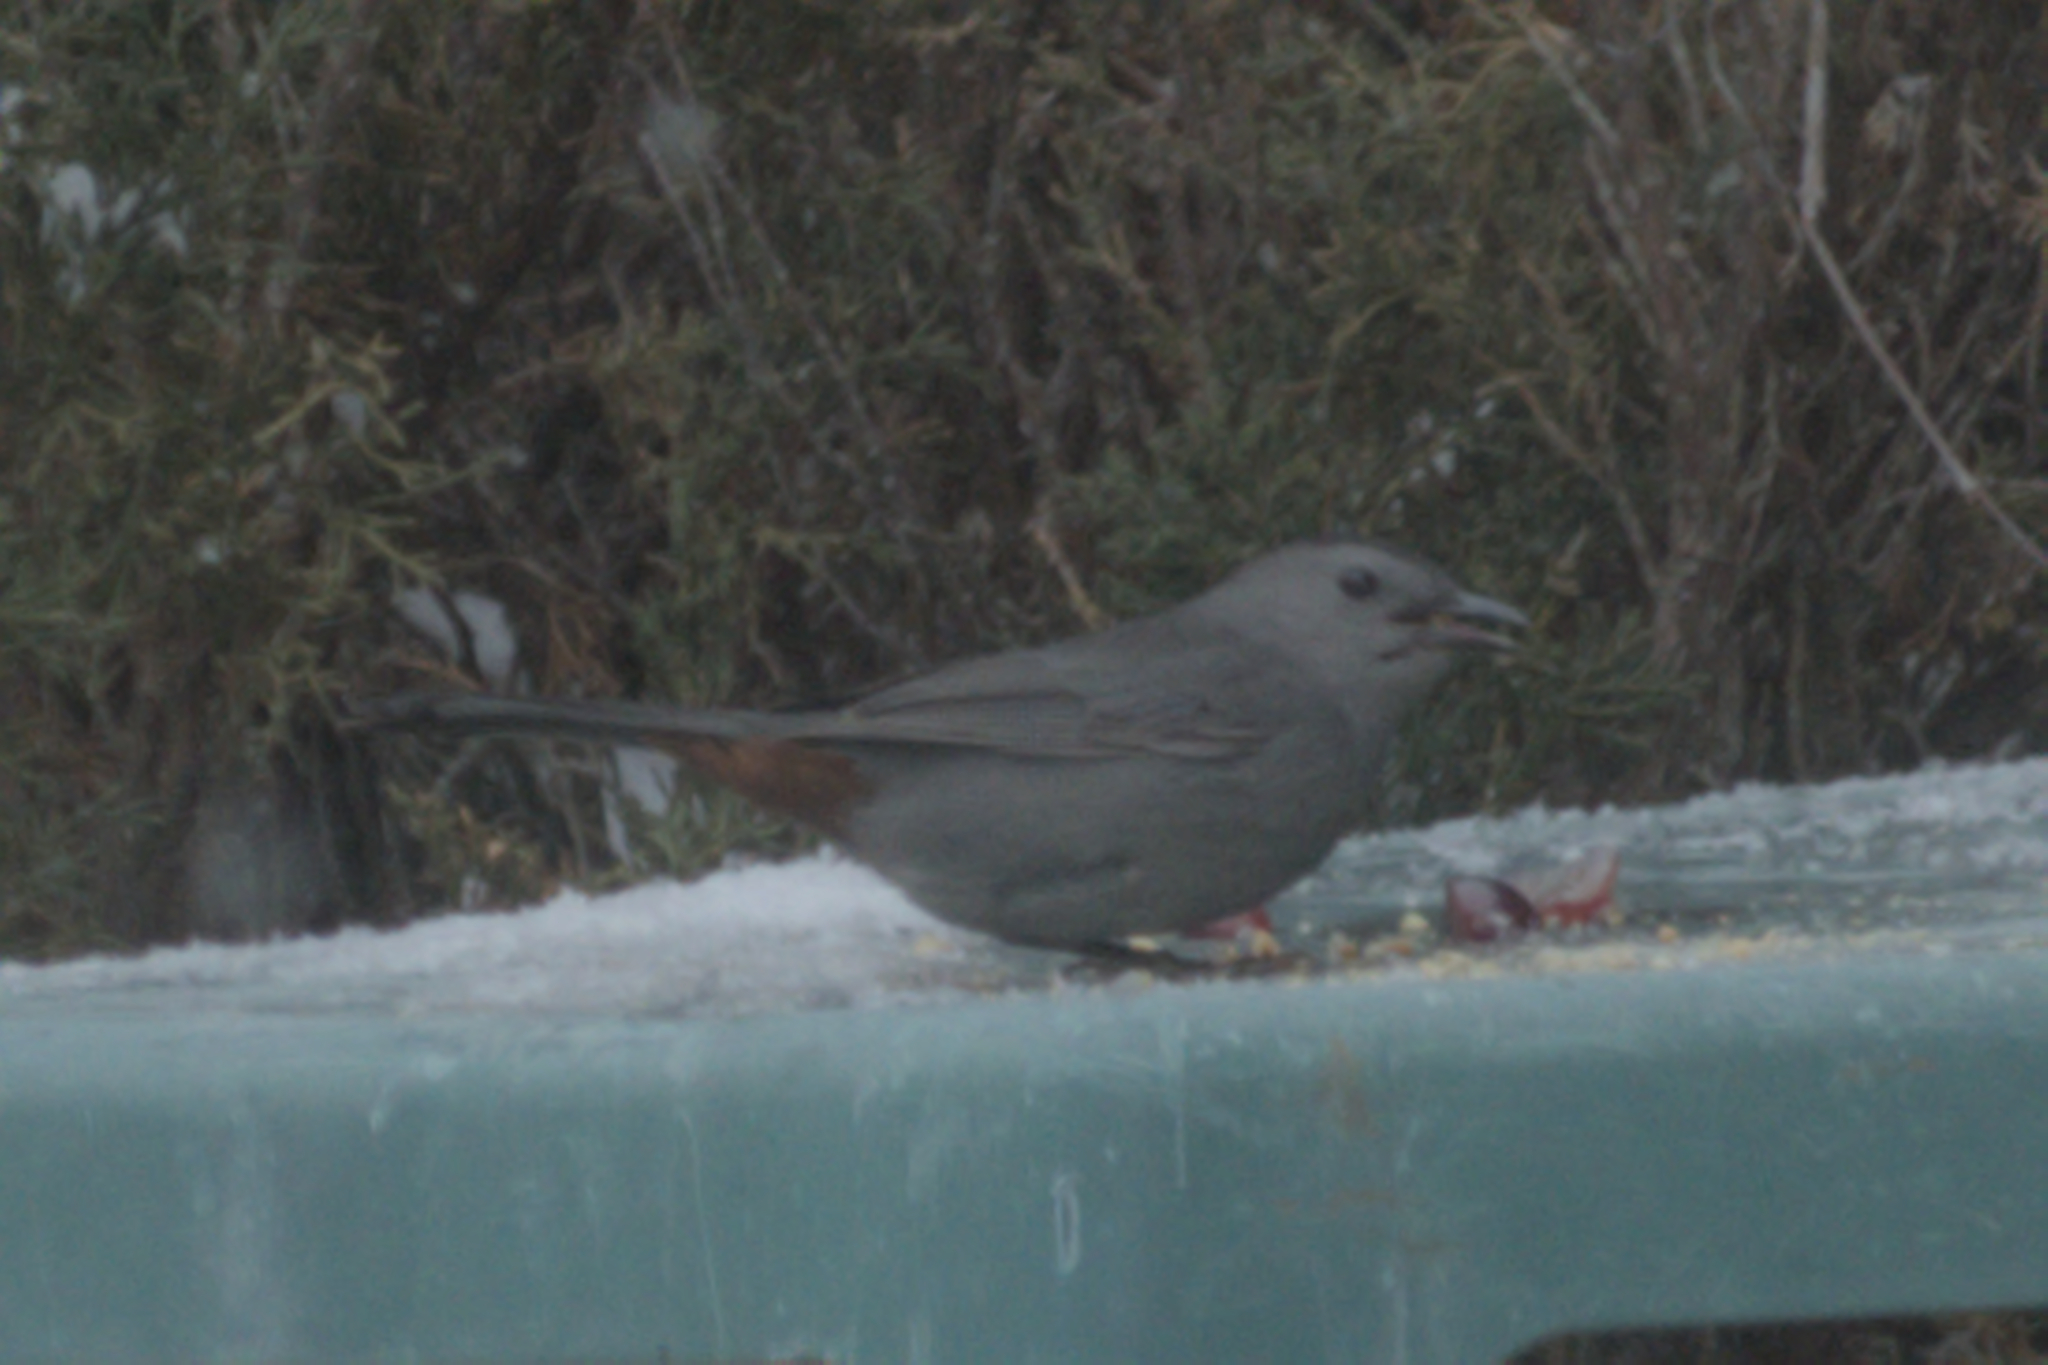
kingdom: Animalia
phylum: Chordata
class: Aves
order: Passeriformes
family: Mimidae
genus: Dumetella
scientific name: Dumetella carolinensis
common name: Gray catbird
